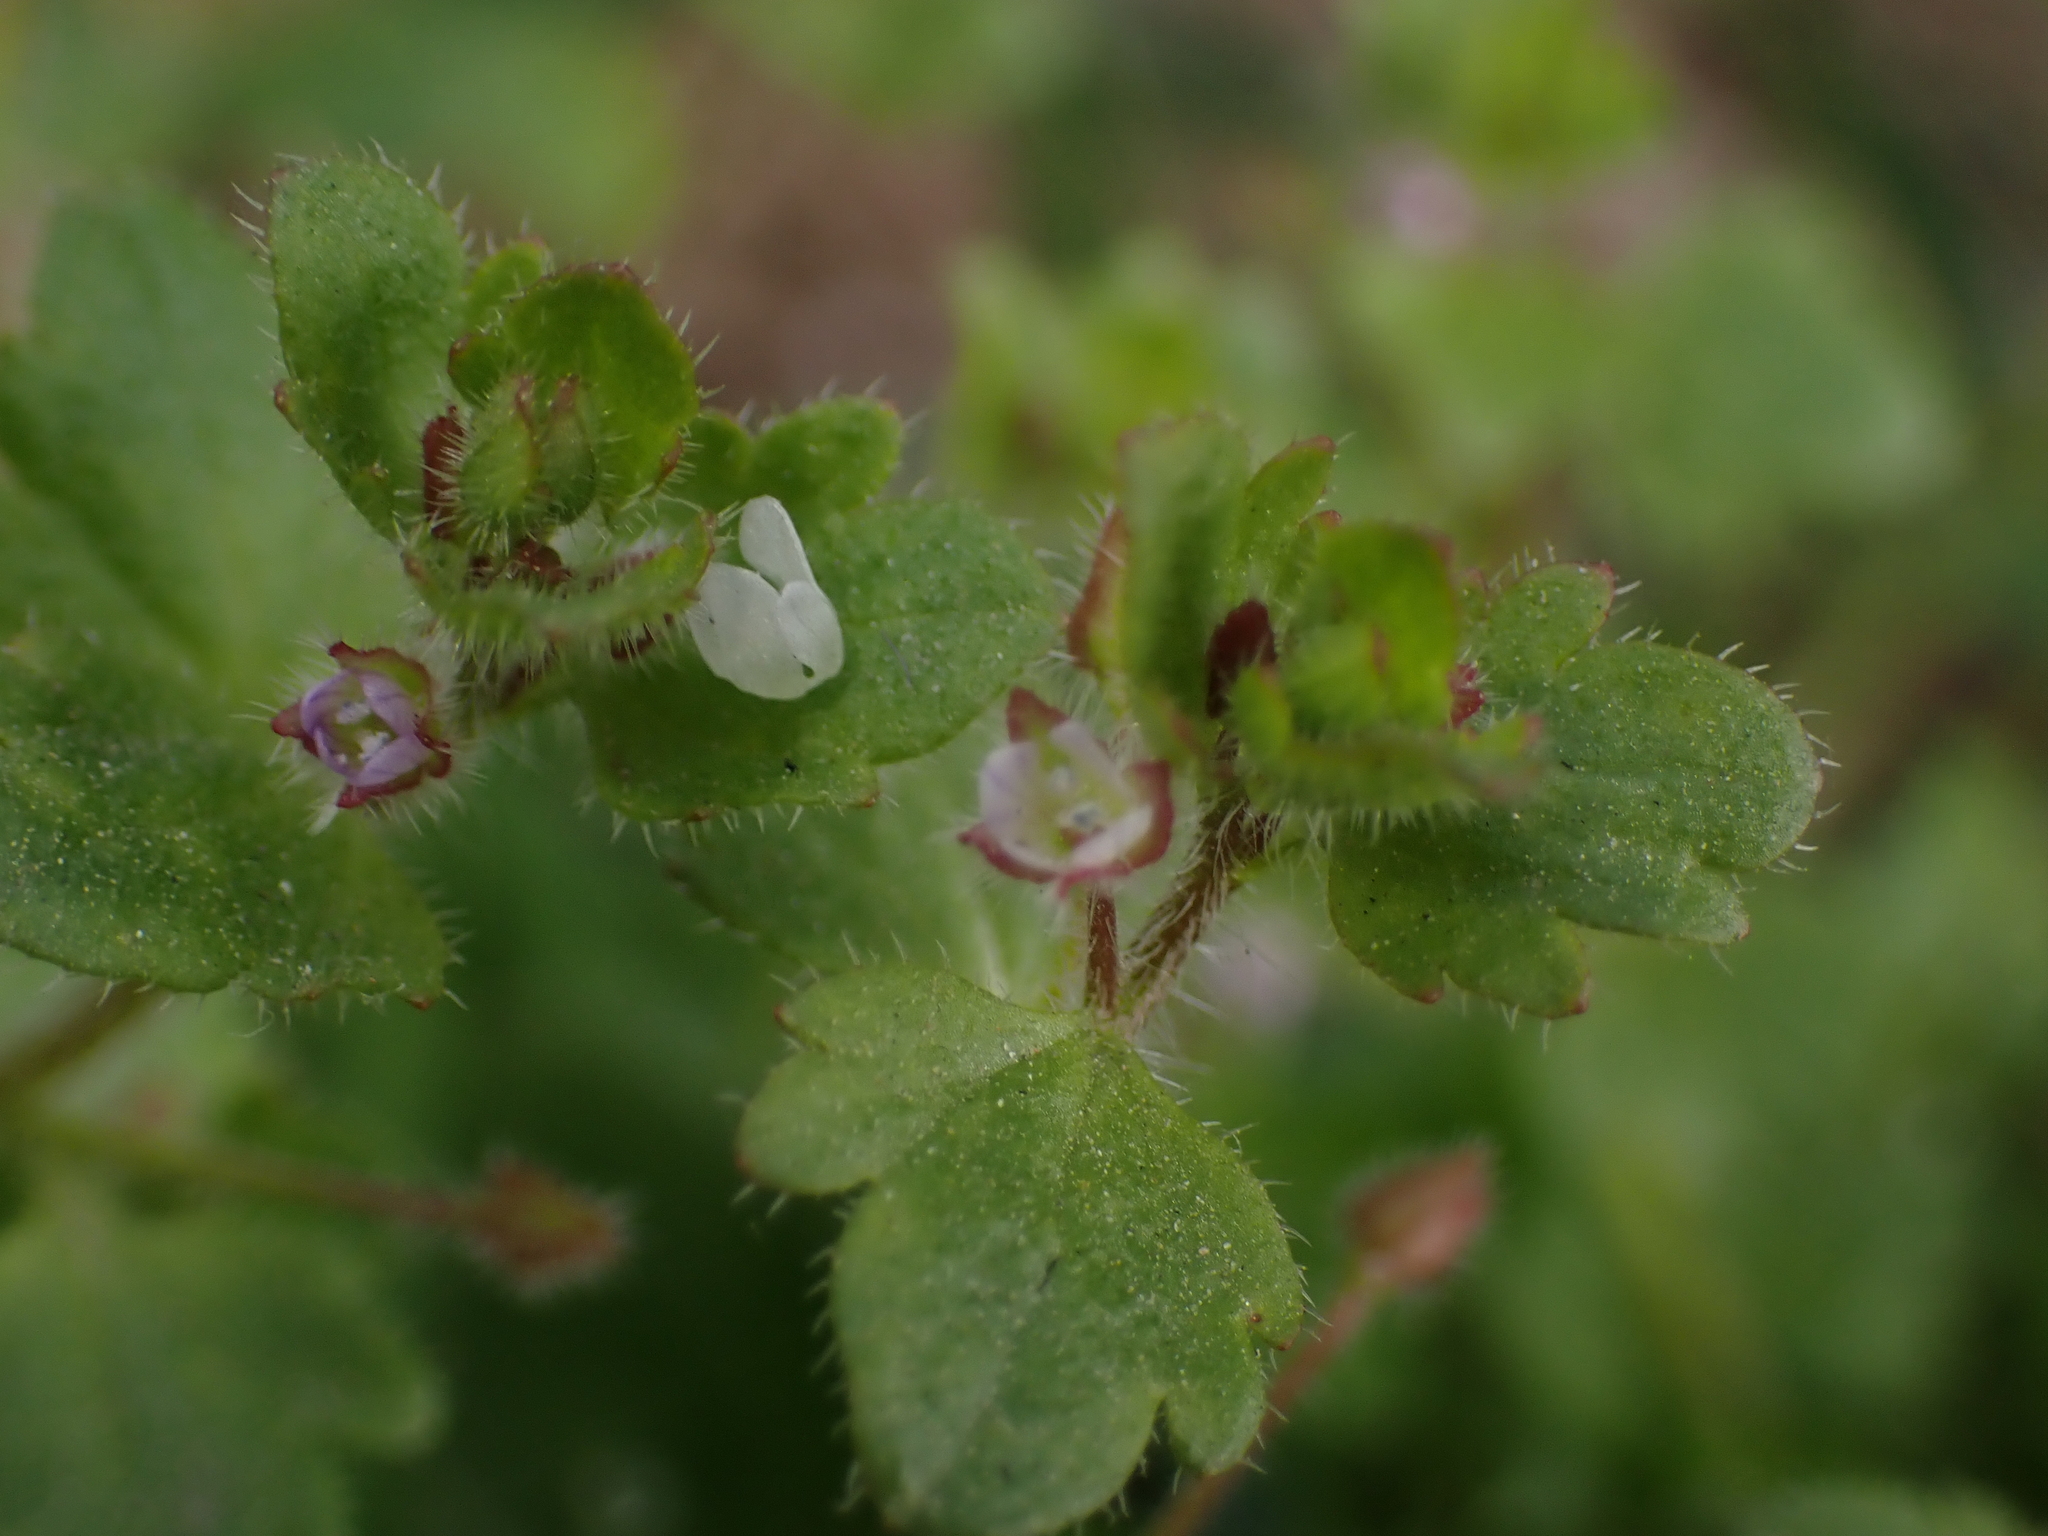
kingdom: Plantae
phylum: Tracheophyta
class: Magnoliopsida
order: Lamiales
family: Plantaginaceae
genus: Veronica
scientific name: Veronica sublobata
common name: False ivy-leaved speedwell
